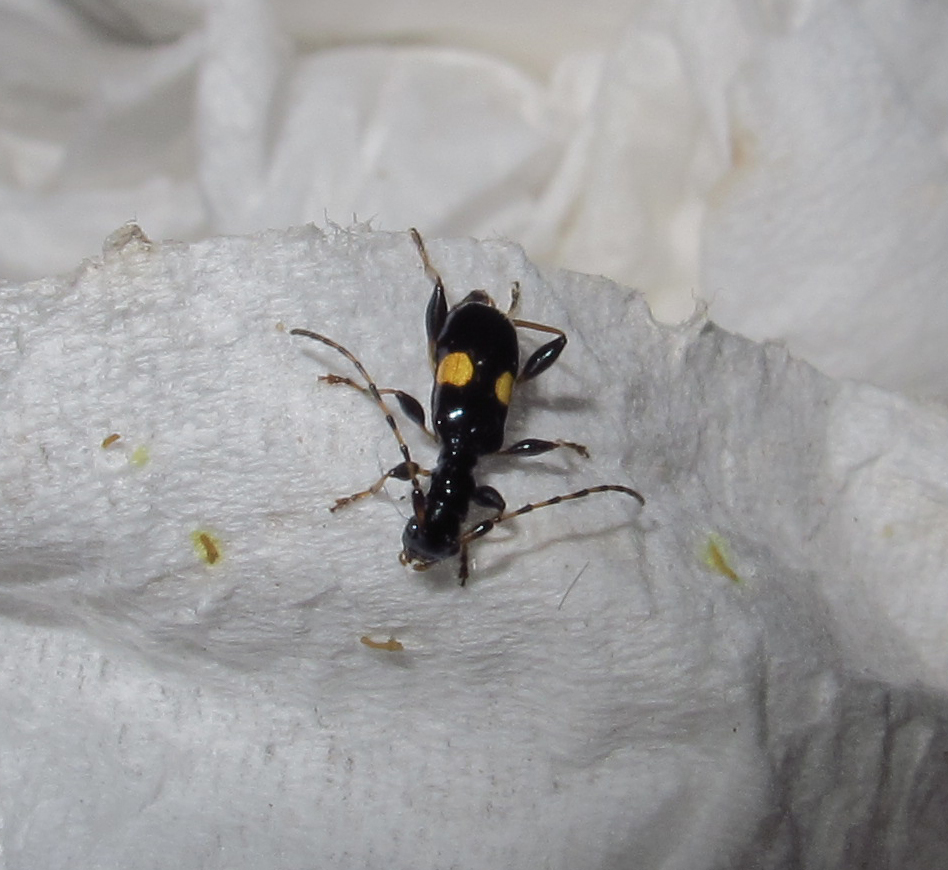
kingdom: Animalia
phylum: Arthropoda
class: Insecta
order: Coleoptera
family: Cerambycidae
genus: Zorion
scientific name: Zorion guttigerum
